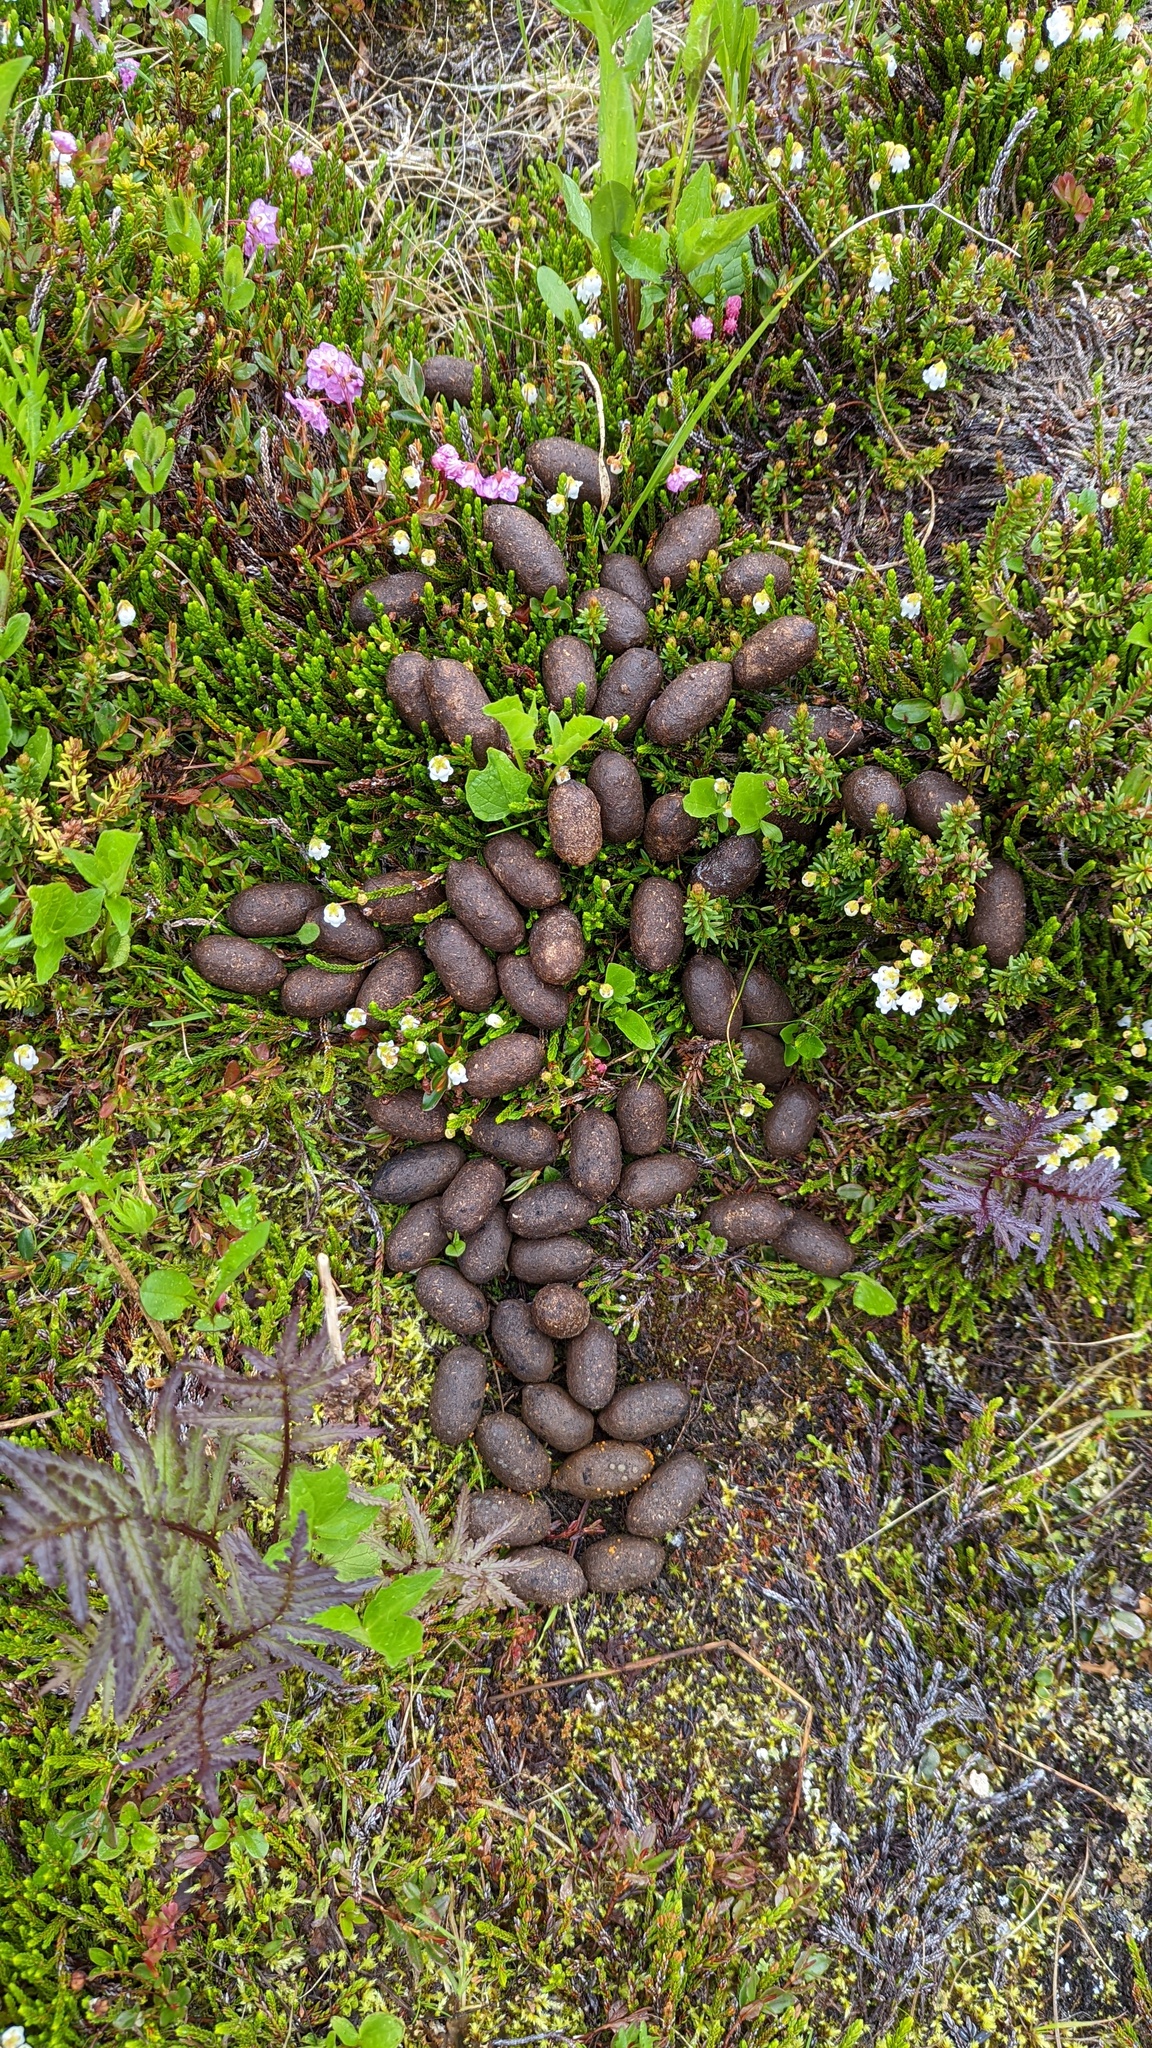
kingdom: Animalia
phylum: Chordata
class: Mammalia
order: Artiodactyla
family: Cervidae
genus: Alces
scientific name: Alces alces
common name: Moose
